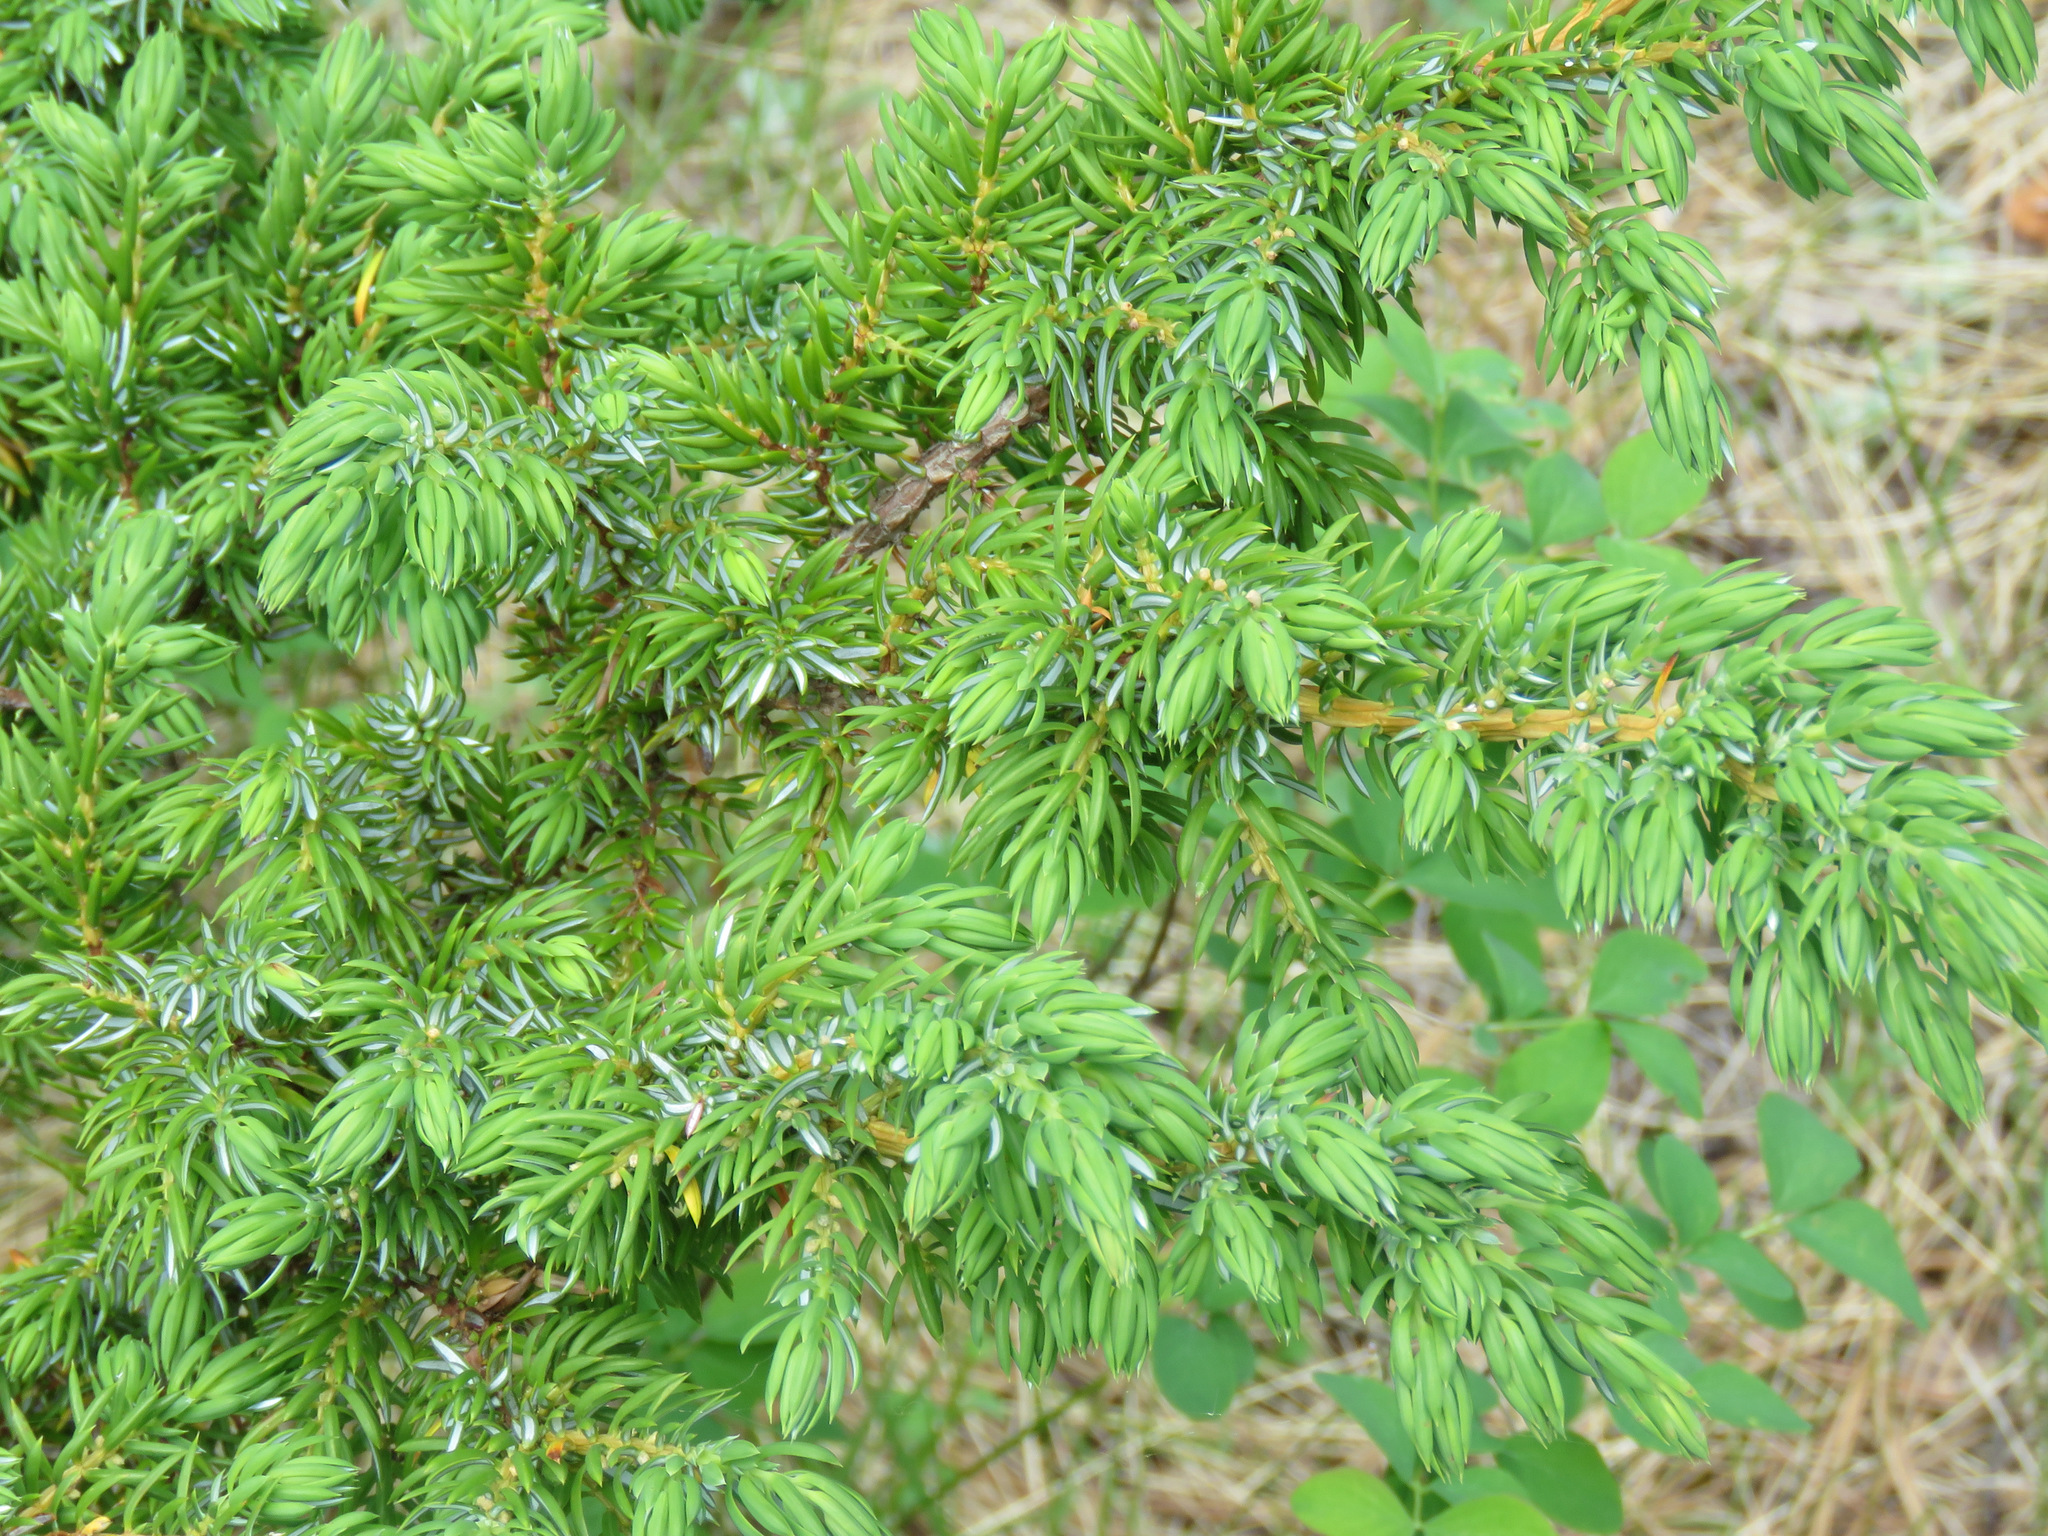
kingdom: Plantae
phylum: Tracheophyta
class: Pinopsida
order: Pinales
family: Cupressaceae
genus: Juniperus
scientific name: Juniperus communis
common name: Common juniper
